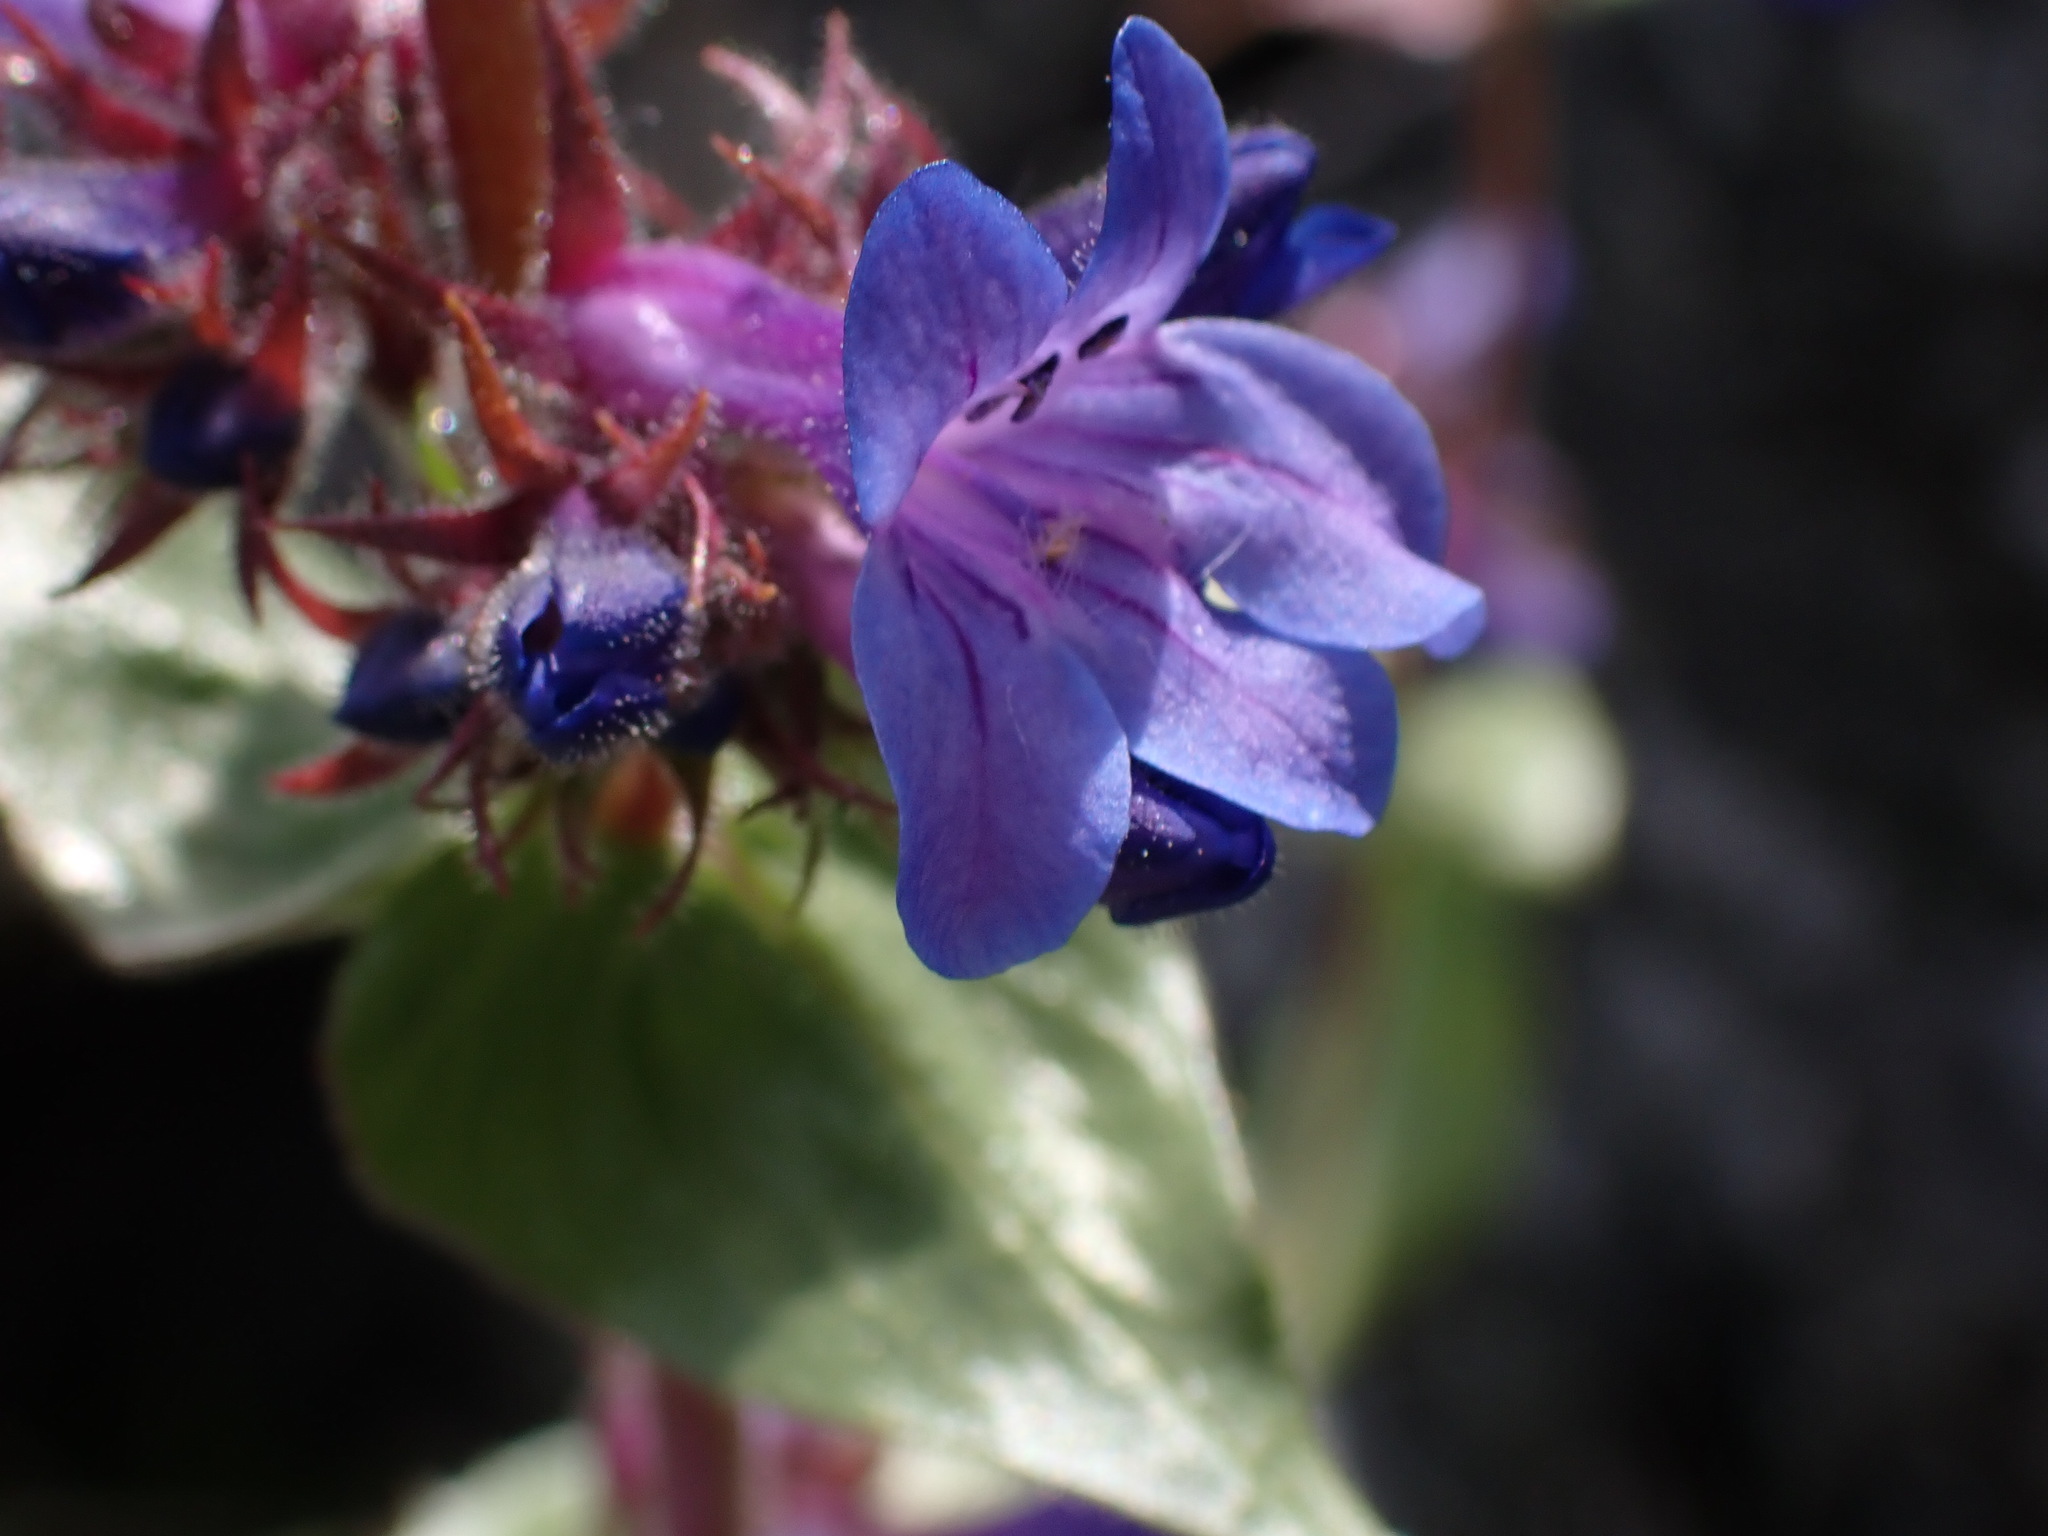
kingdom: Plantae
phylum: Tracheophyta
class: Magnoliopsida
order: Lamiales
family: Plantaginaceae
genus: Penstemon
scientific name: Penstemon pruinosus
